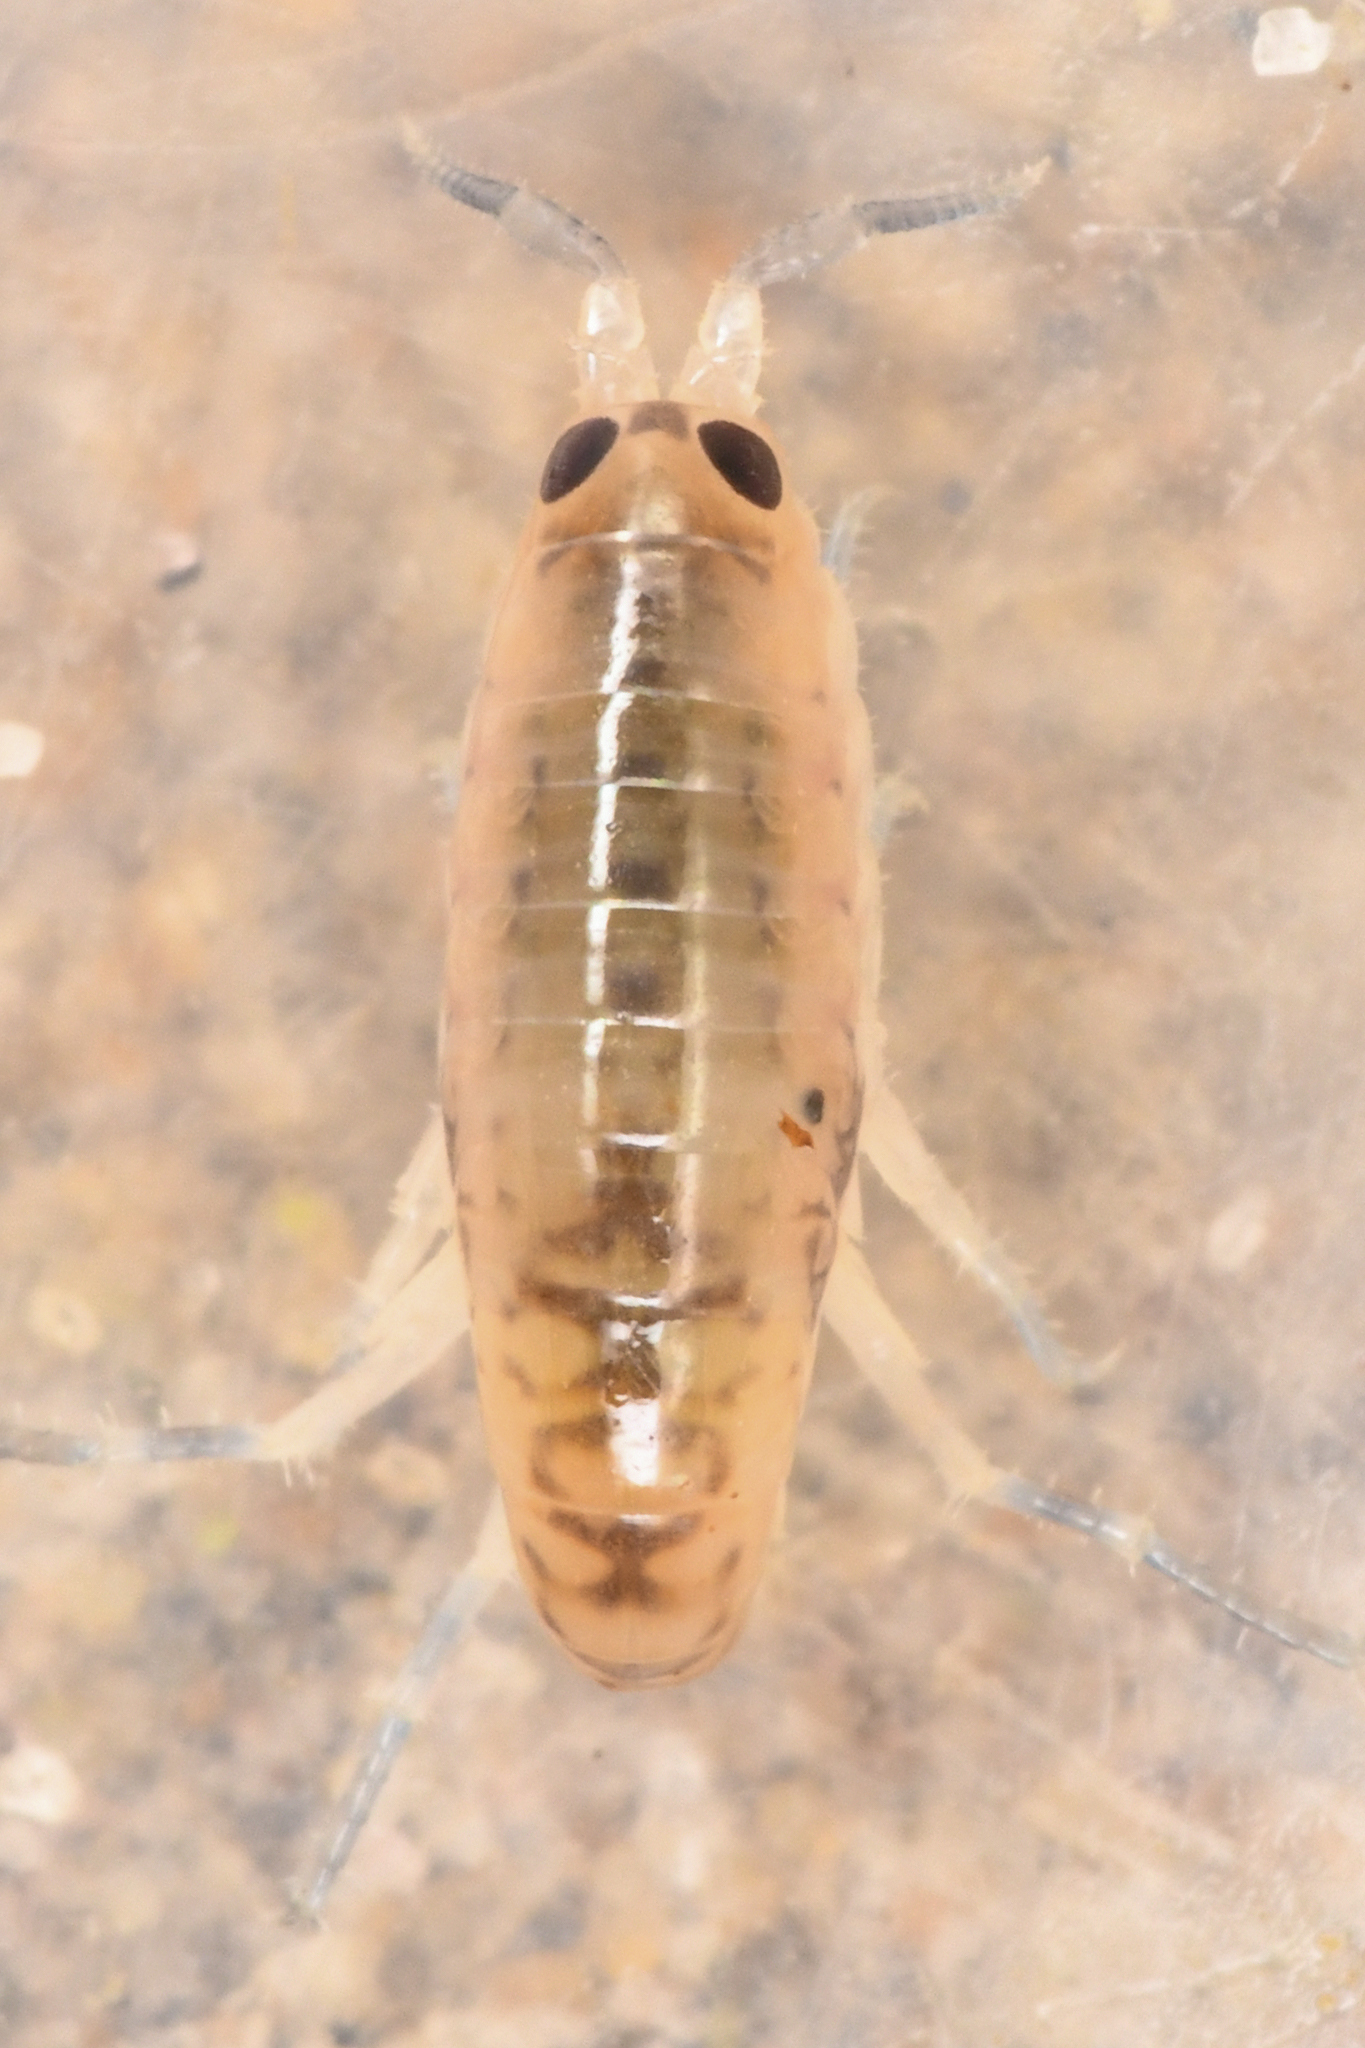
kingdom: Animalia
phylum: Arthropoda
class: Malacostraca
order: Amphipoda
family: Talitridae
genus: Megalorchestia
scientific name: Megalorchestia corniculata
